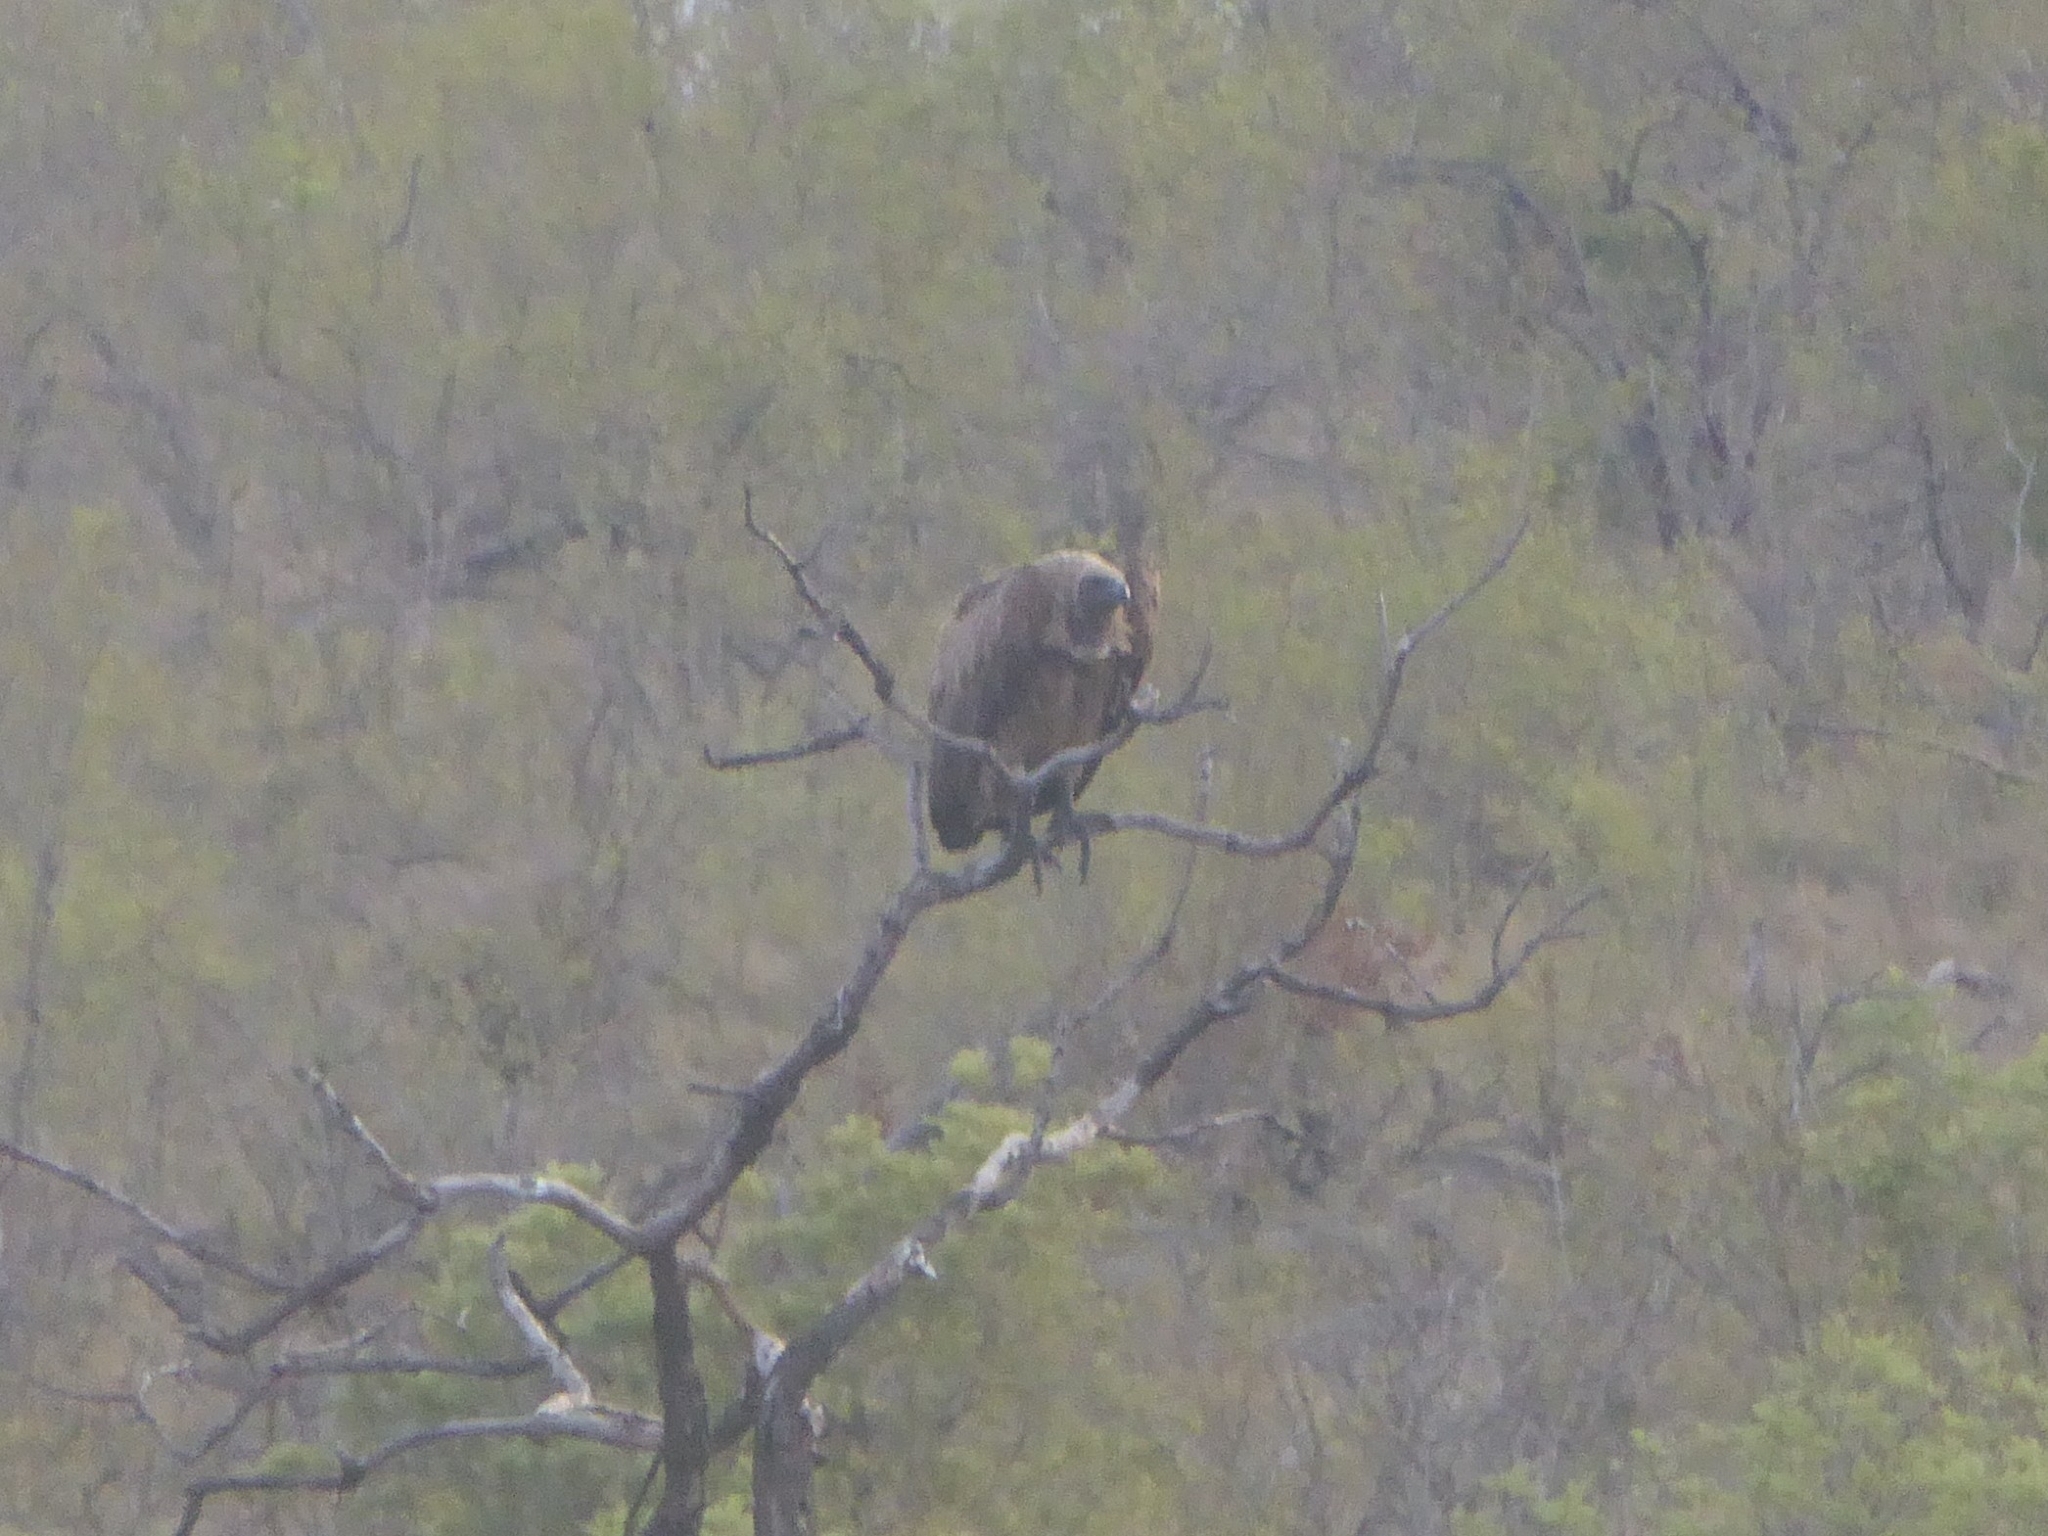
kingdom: Animalia
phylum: Chordata
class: Aves
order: Accipitriformes
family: Accipitridae
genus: Gyps
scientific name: Gyps africanus
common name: White-backed vulture
